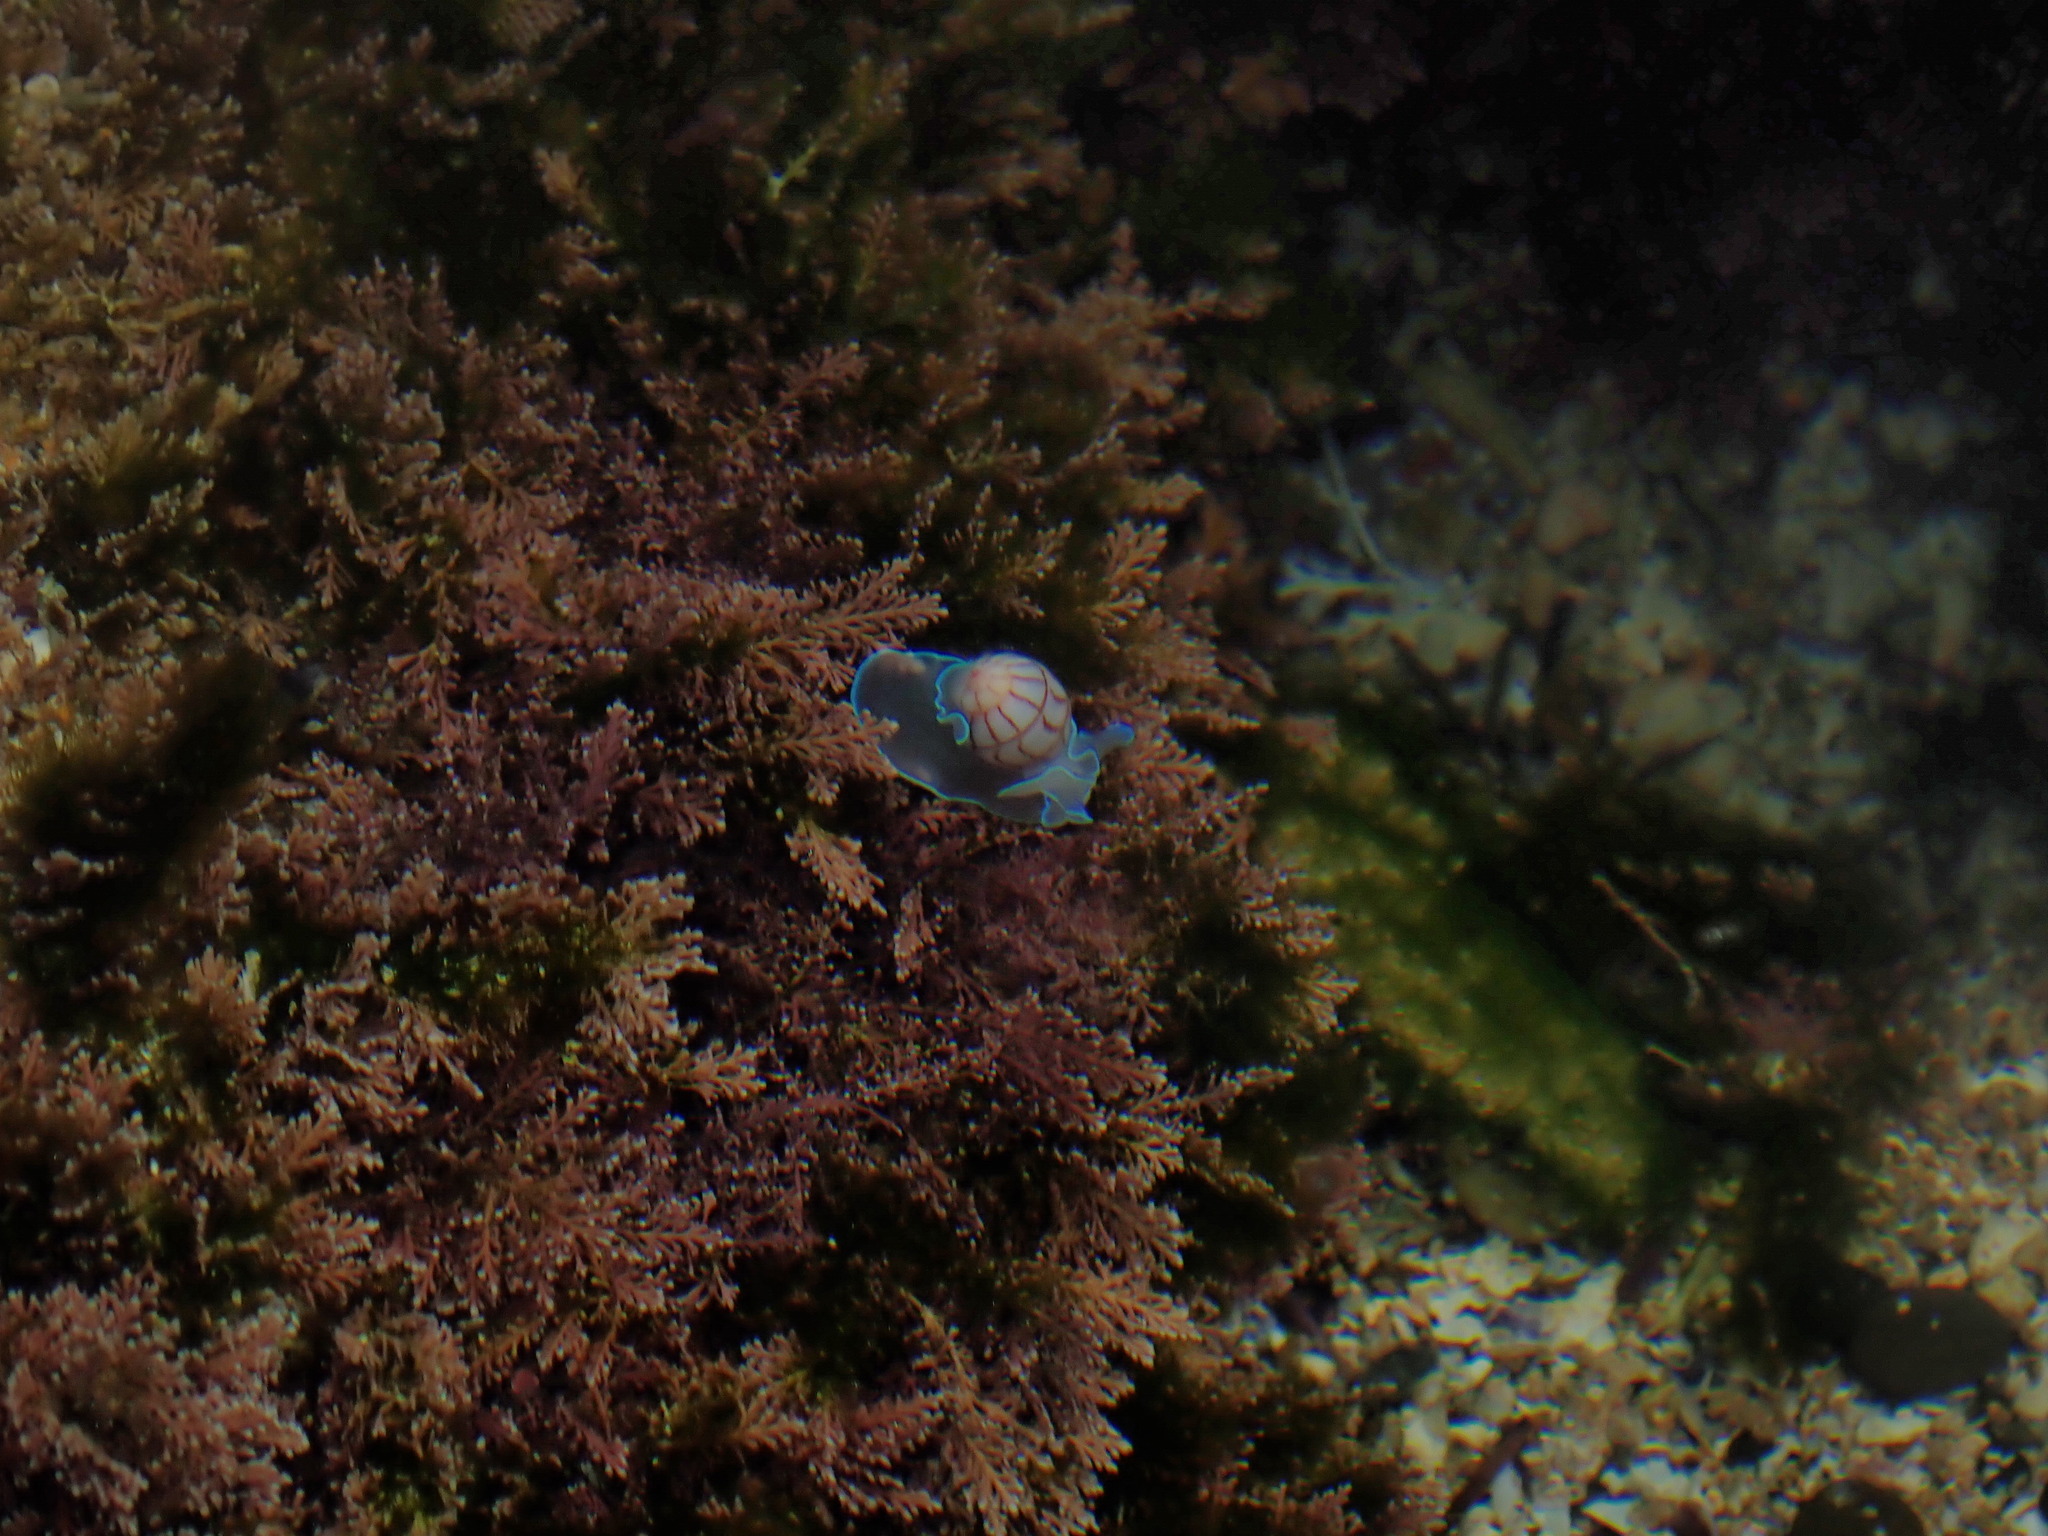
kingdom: Animalia
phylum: Mollusca
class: Gastropoda
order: Cephalaspidea
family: Aplustridae
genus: Bullina
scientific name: Bullina lineata
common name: Lined bubble snail
